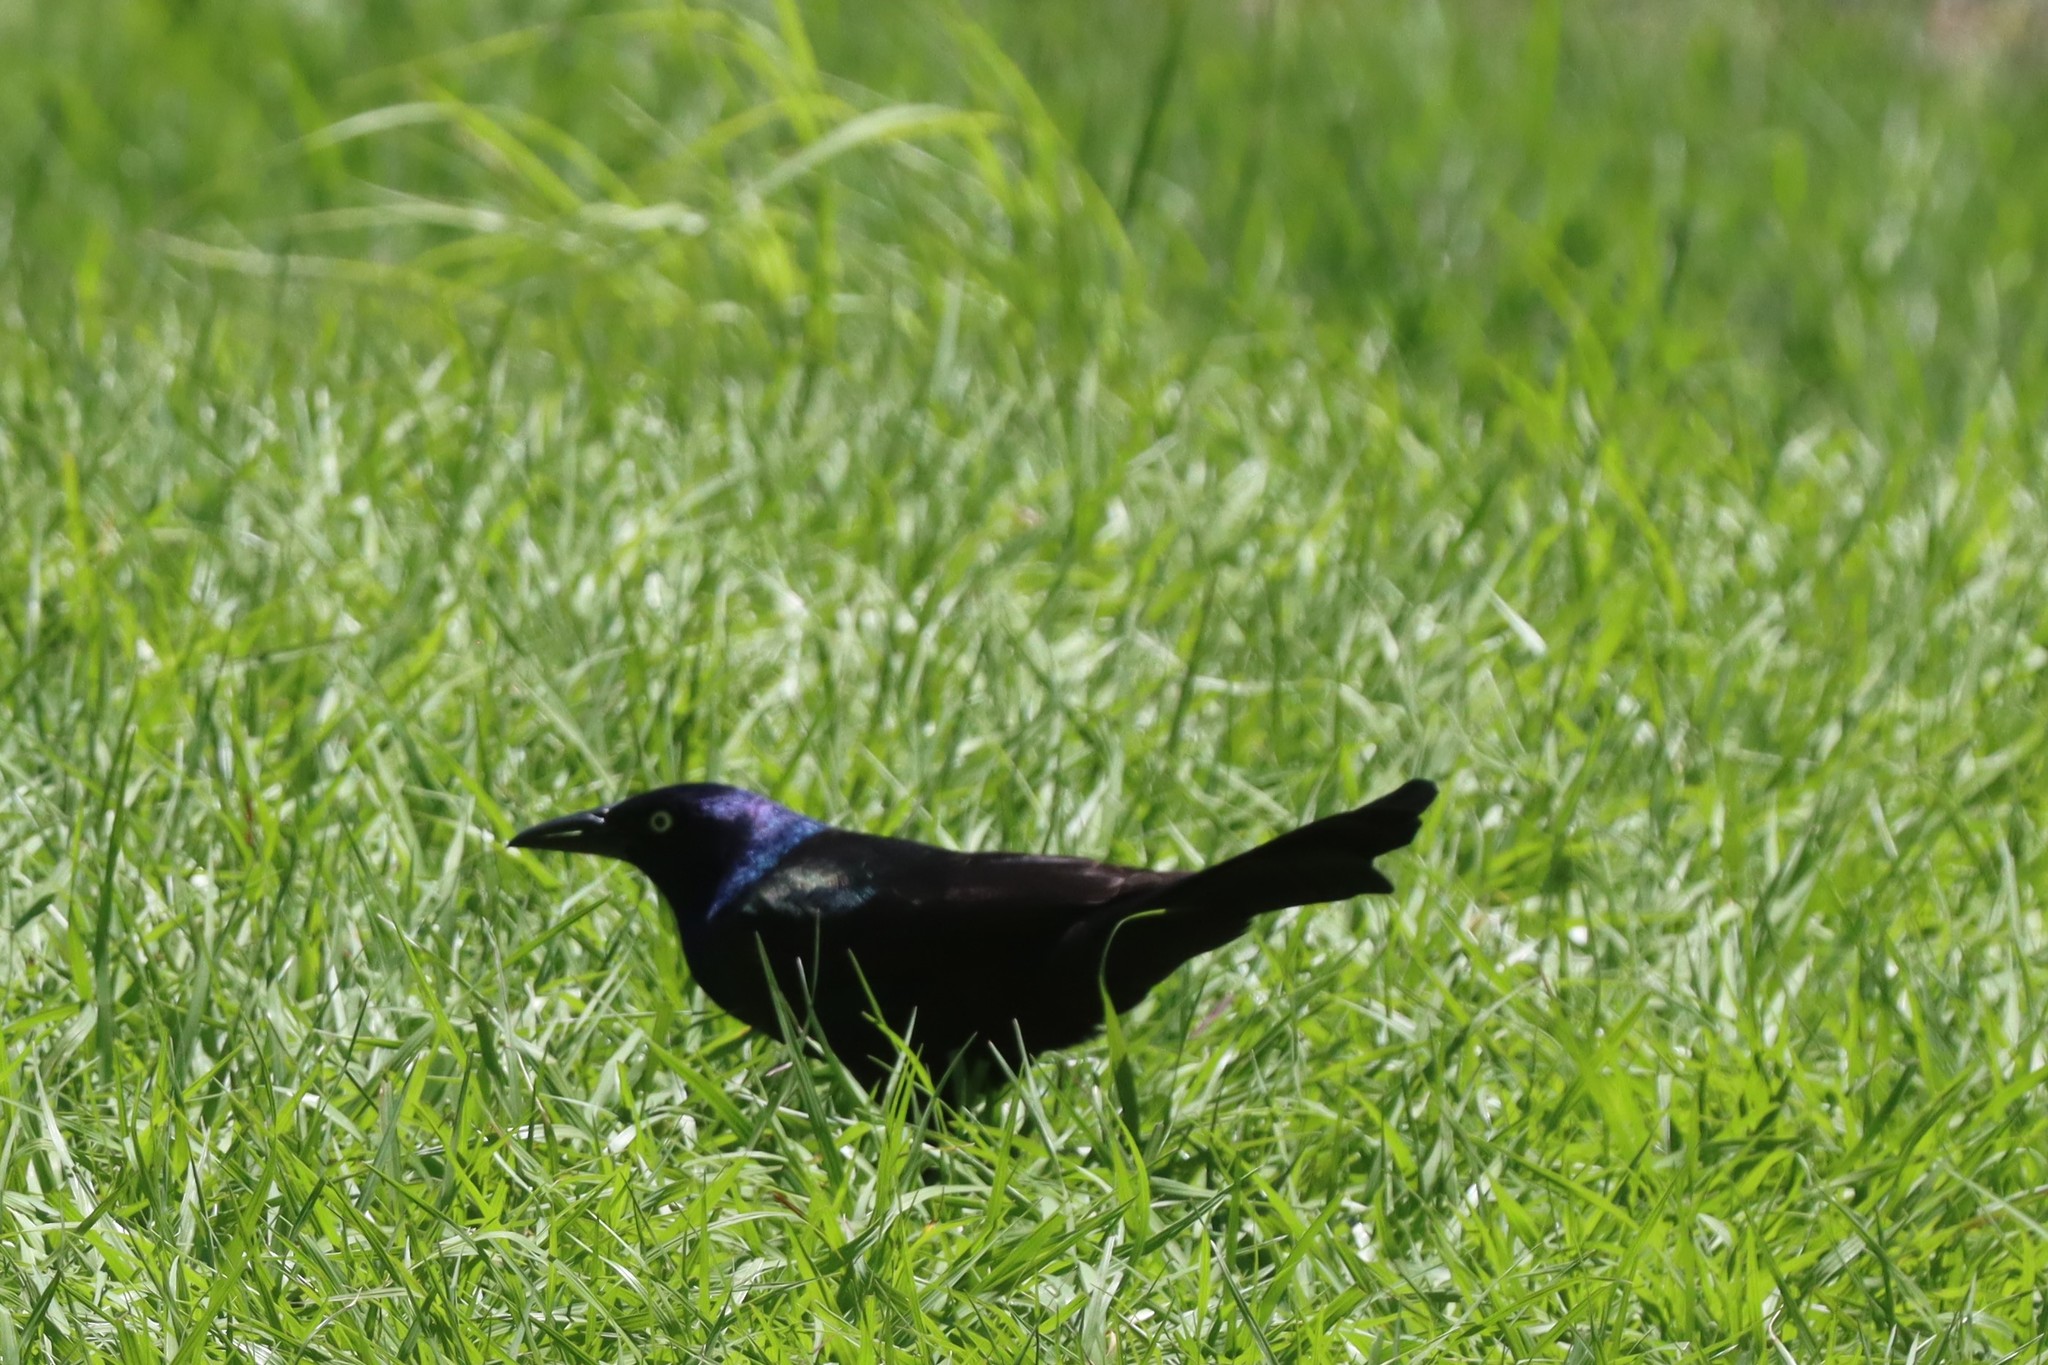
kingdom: Animalia
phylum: Chordata
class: Aves
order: Passeriformes
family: Icteridae
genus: Quiscalus
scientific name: Quiscalus quiscula
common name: Common grackle
